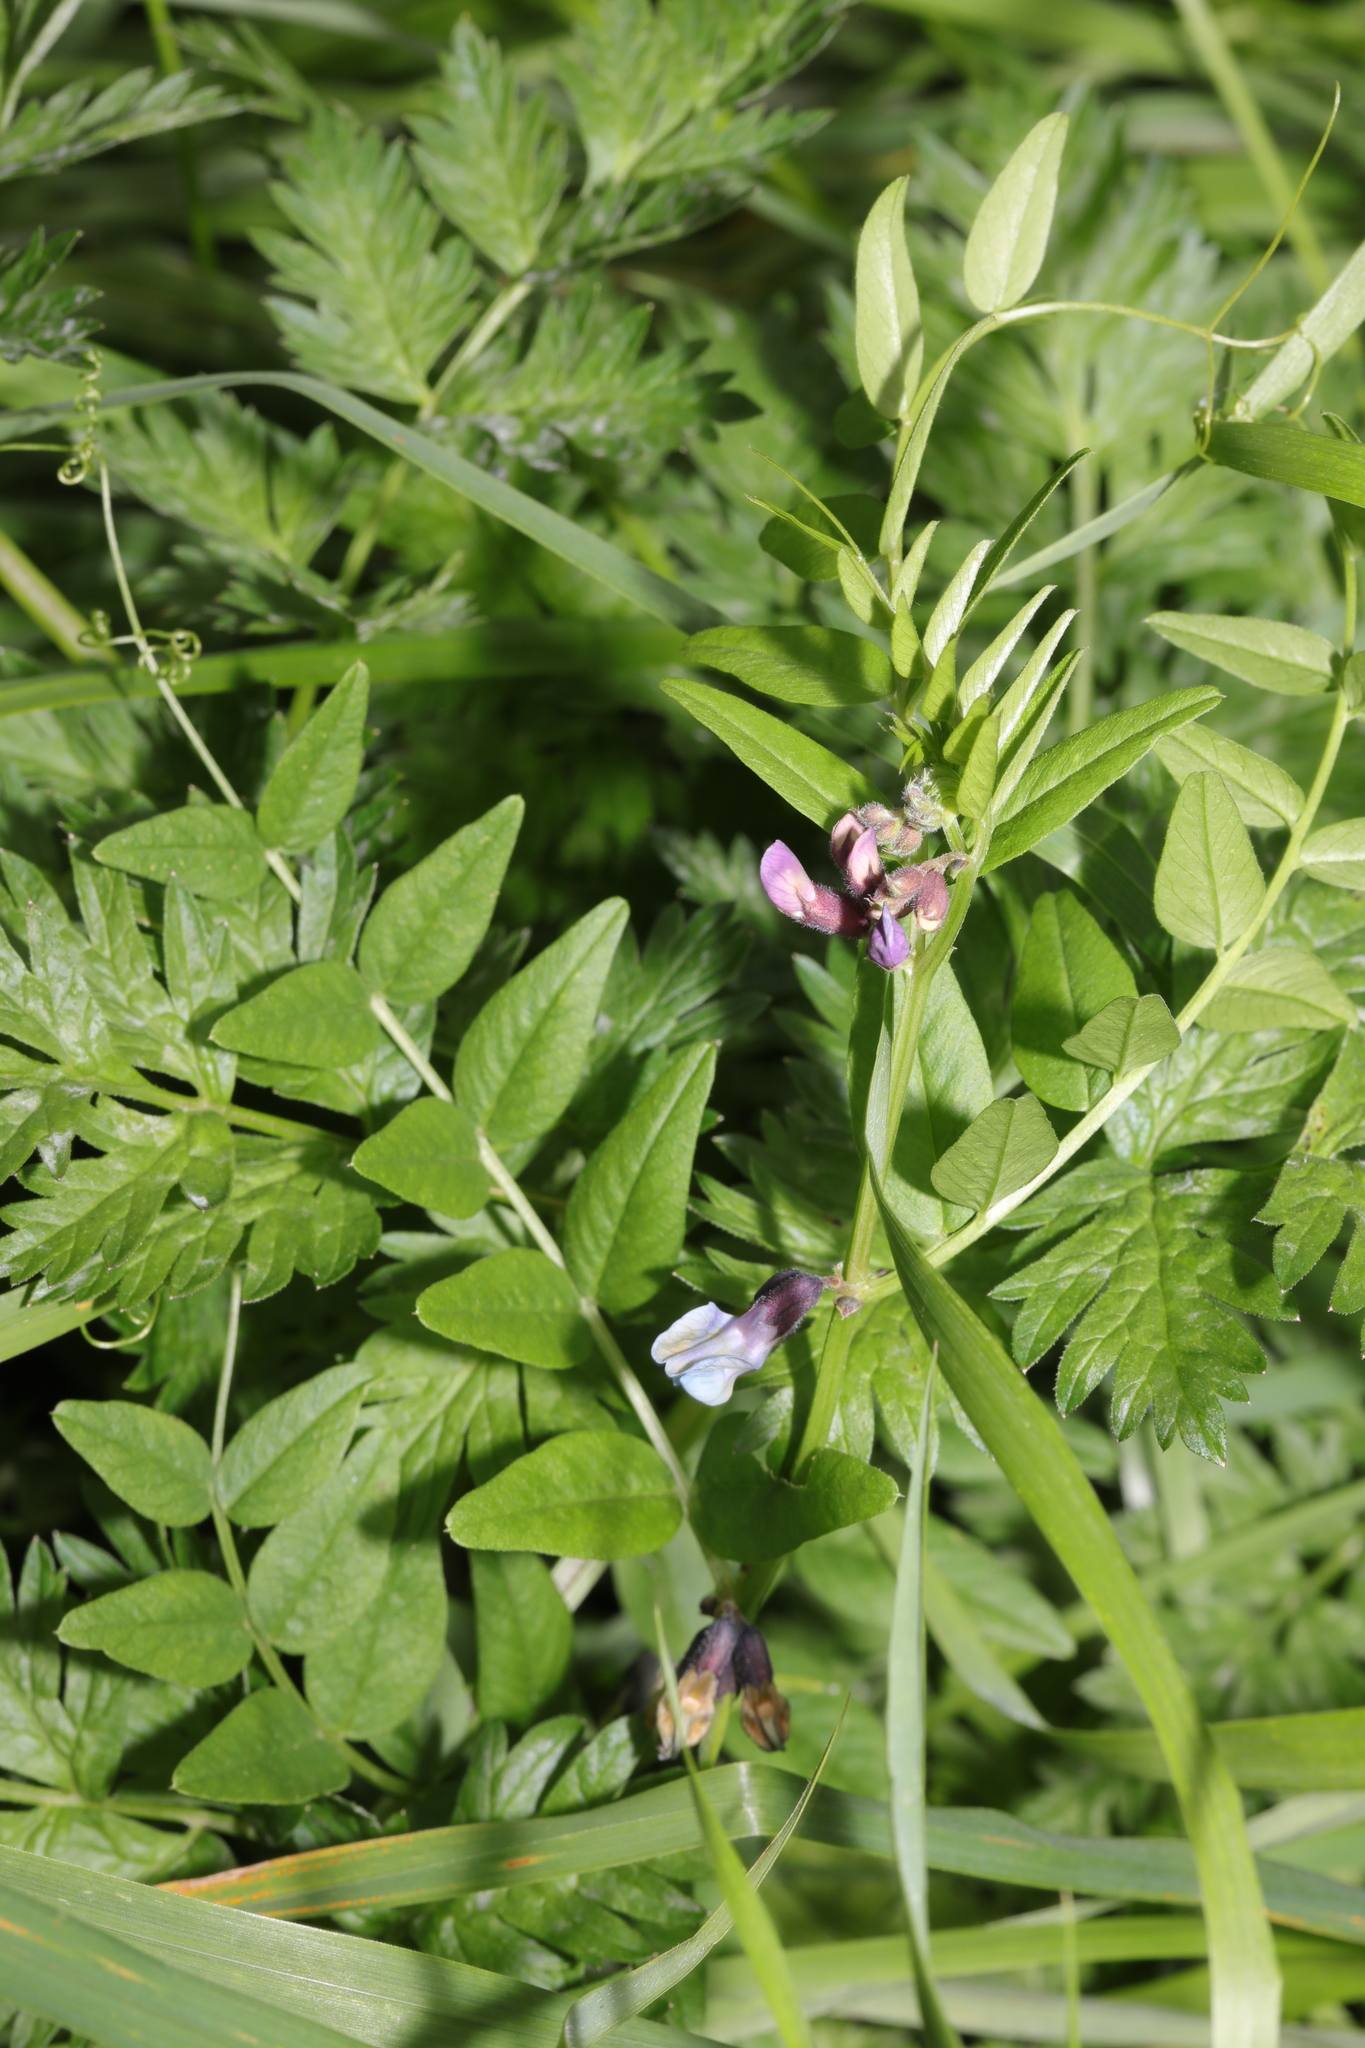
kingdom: Plantae
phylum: Tracheophyta
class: Magnoliopsida
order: Fabales
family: Fabaceae
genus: Vicia
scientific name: Vicia sepium
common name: Bush vetch
